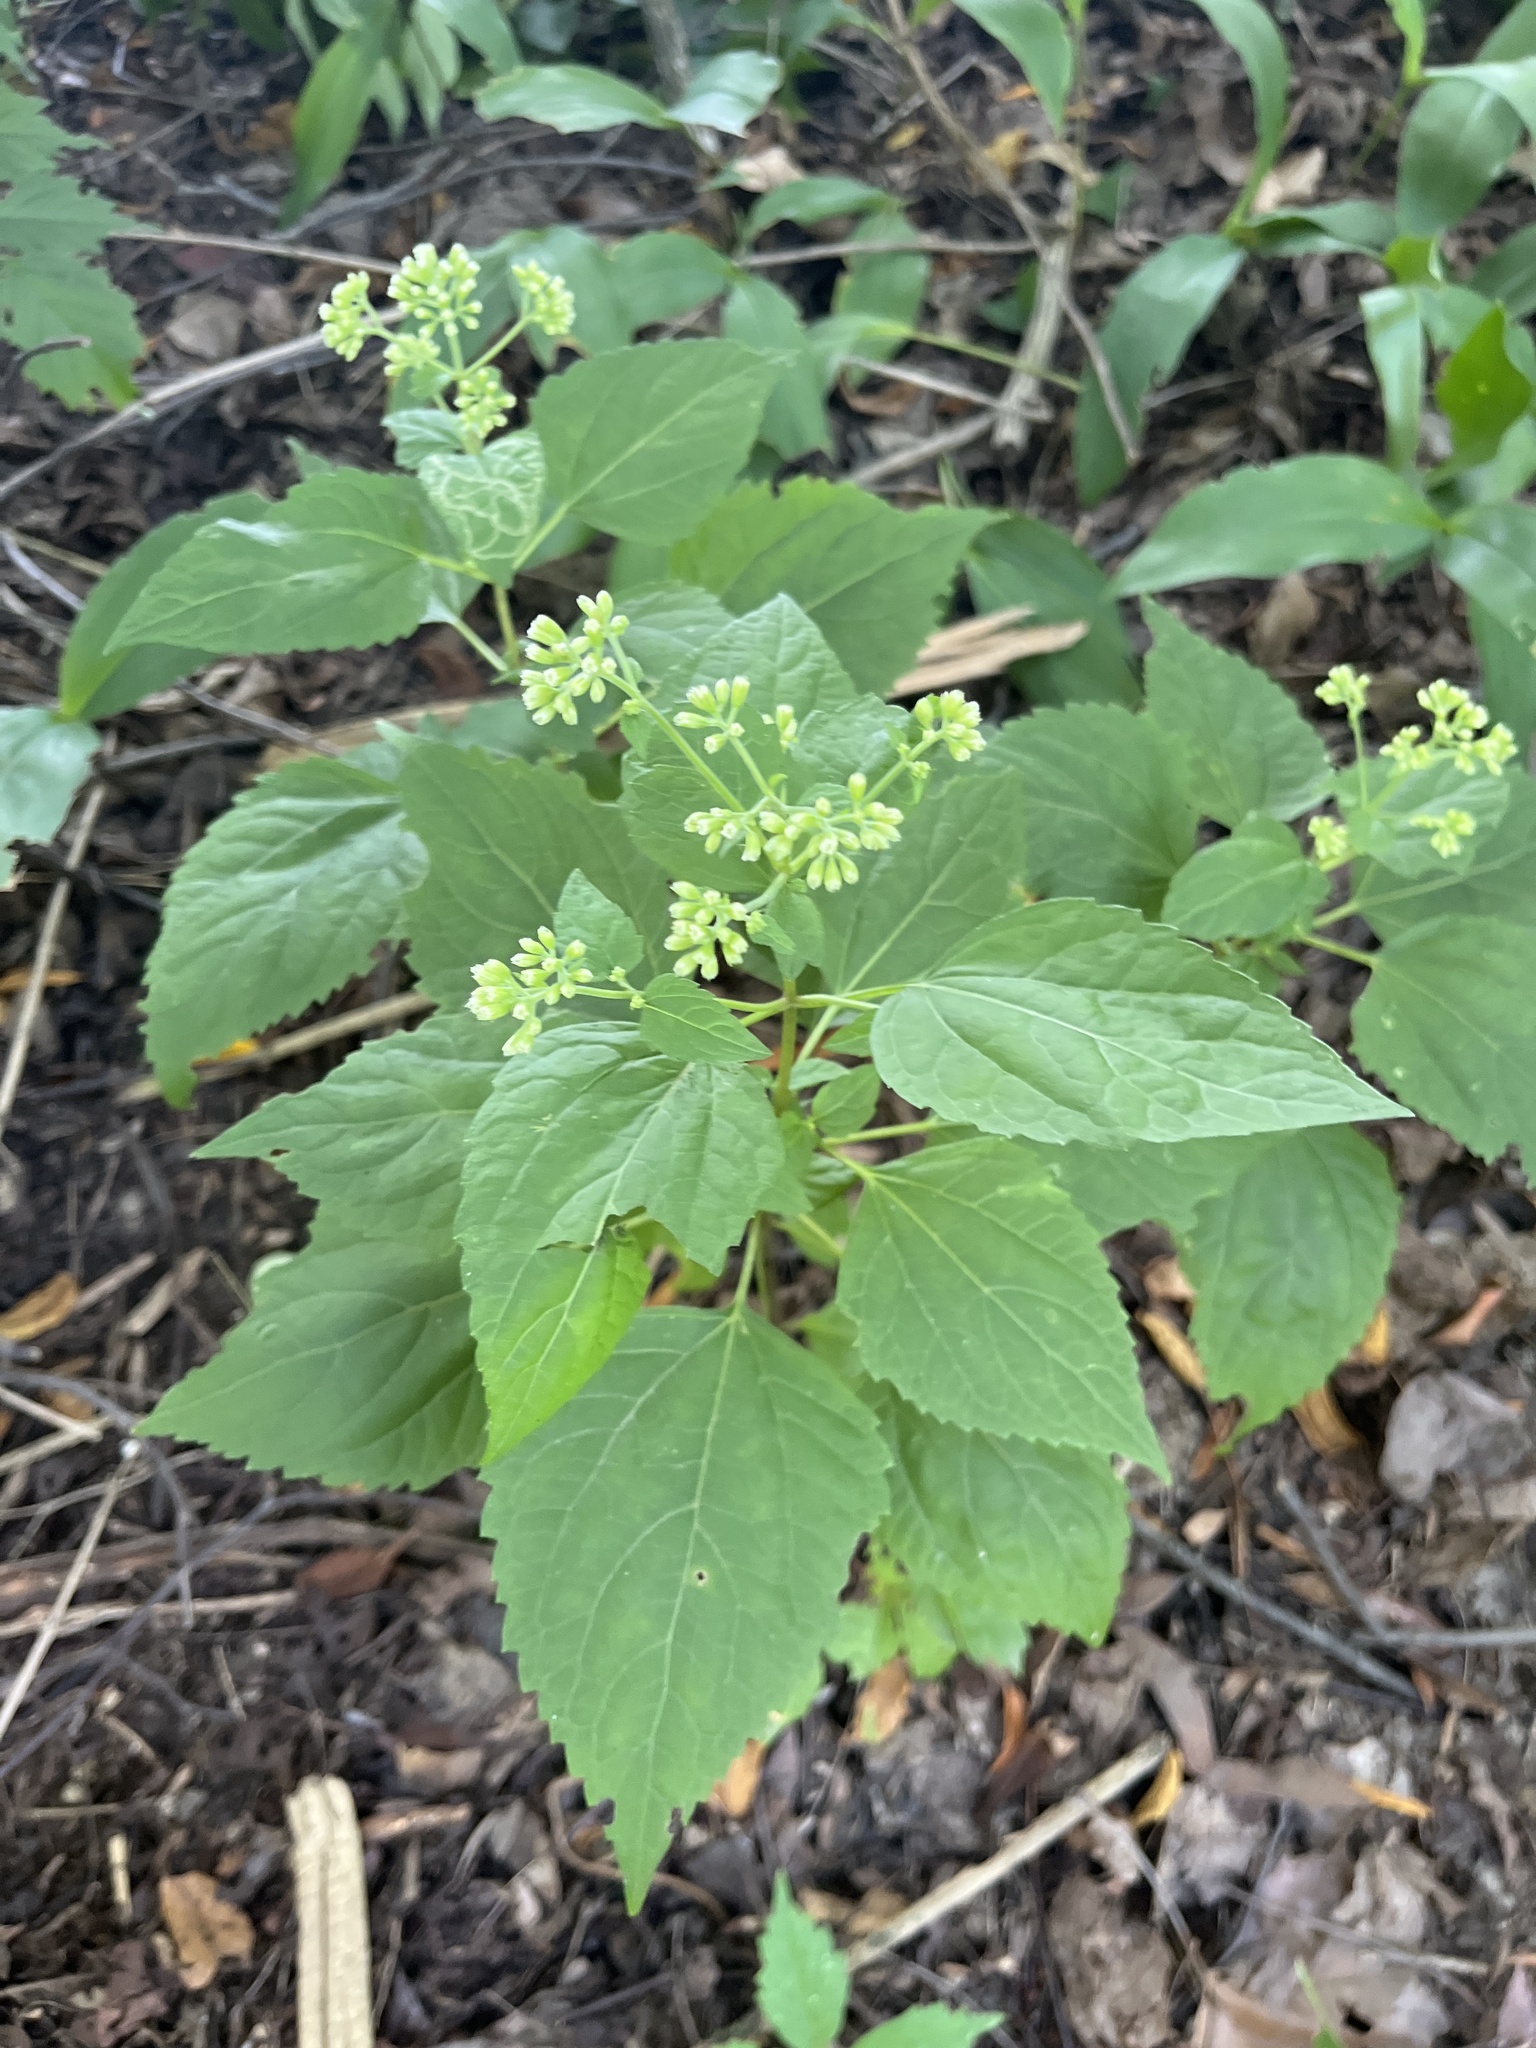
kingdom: Plantae
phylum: Tracheophyta
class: Magnoliopsida
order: Asterales
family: Asteraceae
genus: Ageratina
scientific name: Ageratina altissima
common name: White snakeroot
